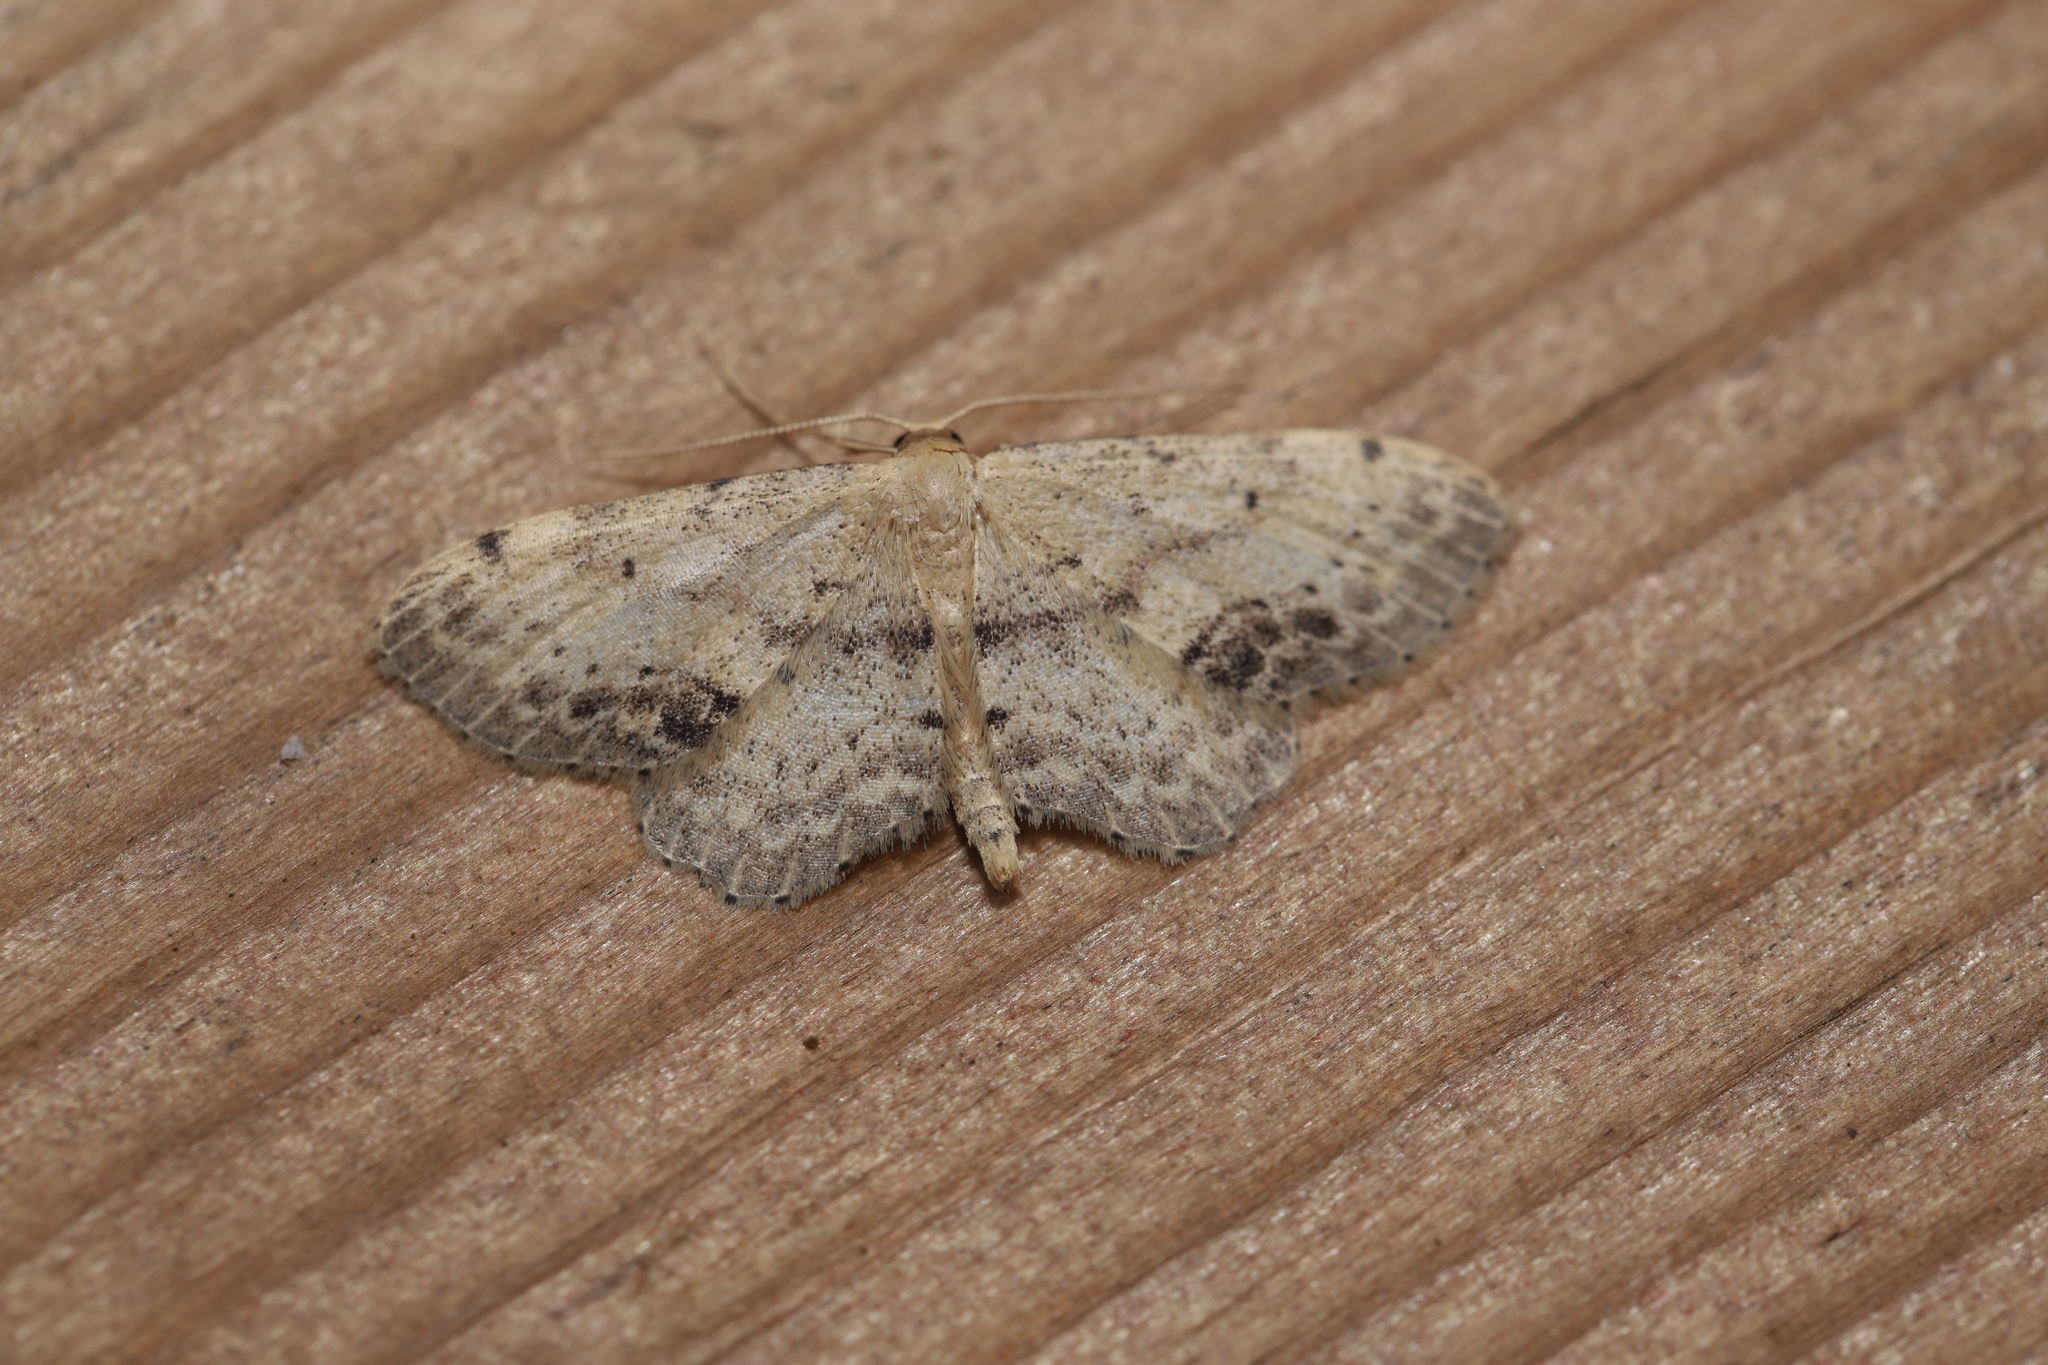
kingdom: Animalia
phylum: Arthropoda
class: Insecta
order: Lepidoptera
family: Geometridae
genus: Idaea
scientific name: Idaea dimidiata
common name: Single-dotted wave
